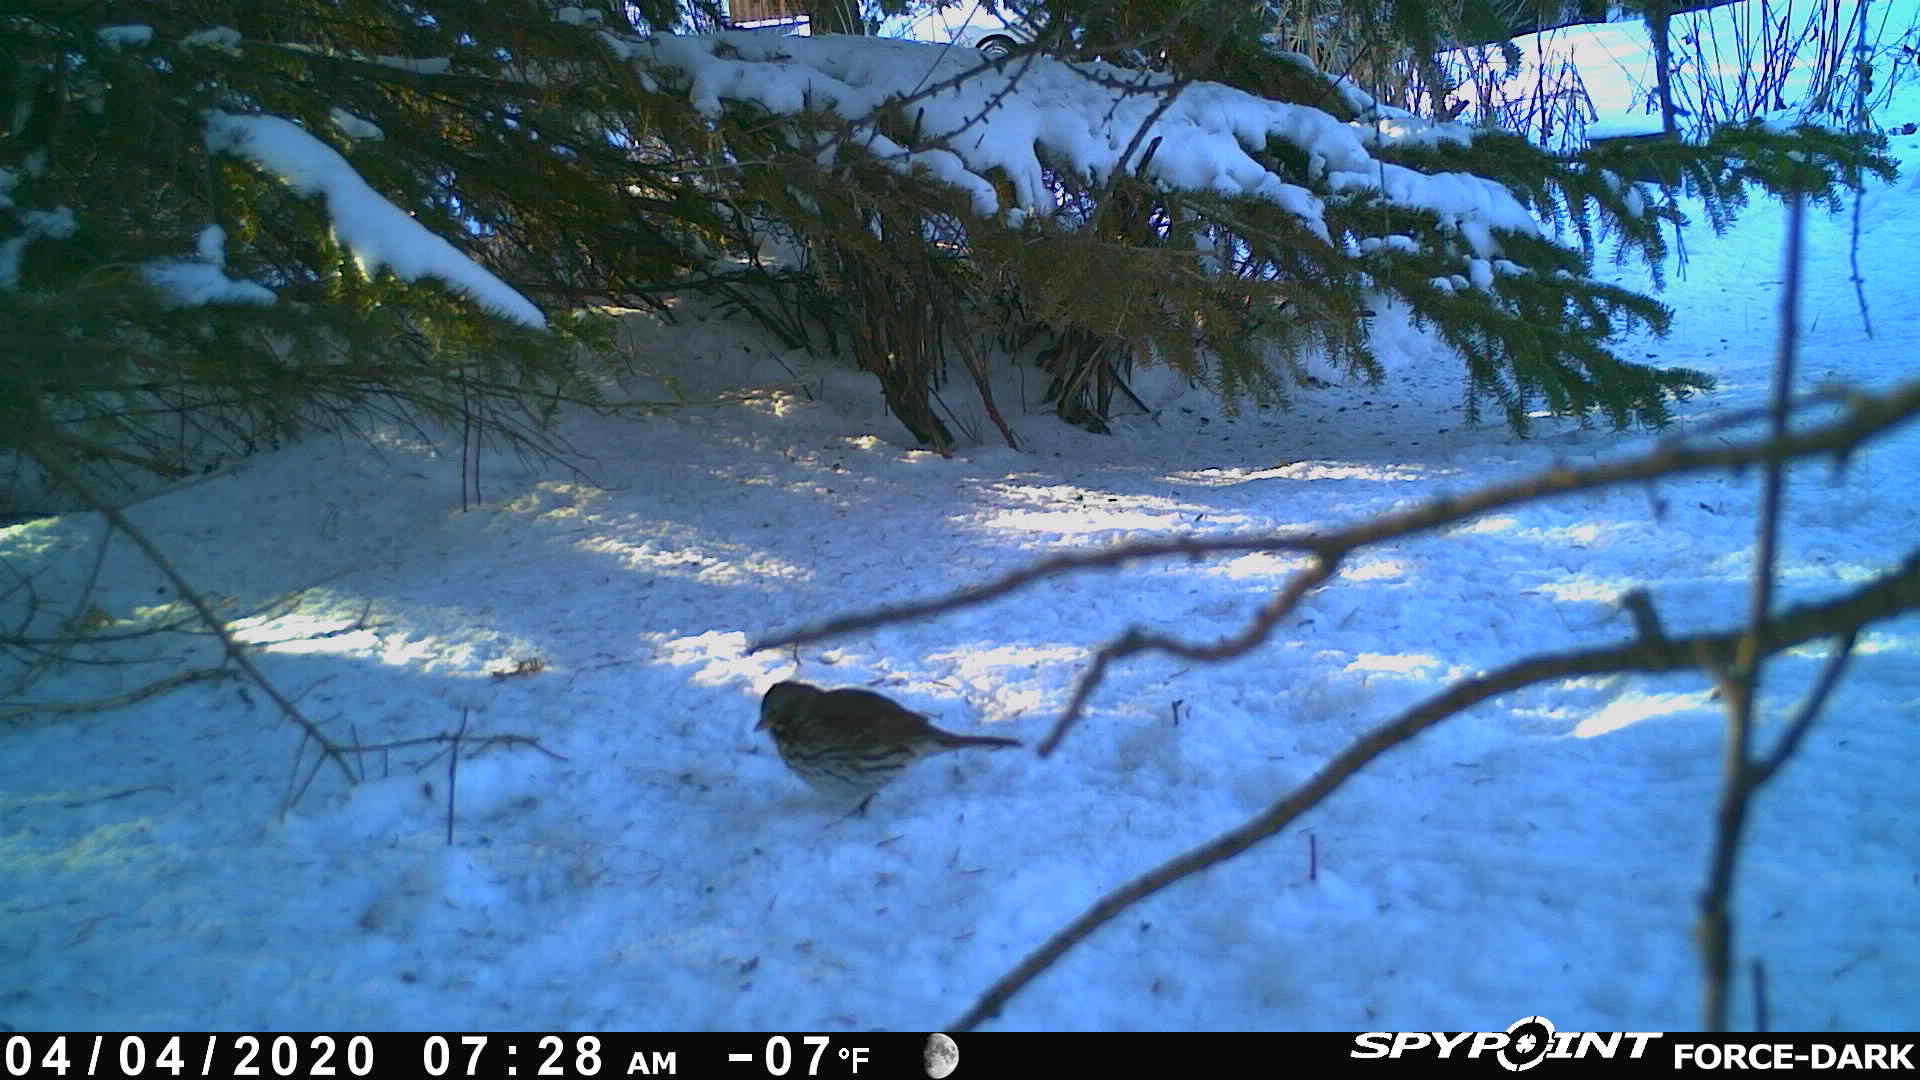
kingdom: Animalia
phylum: Chordata
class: Aves
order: Passeriformes
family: Passerellidae
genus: Passerella
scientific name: Passerella iliaca
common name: Fox sparrow
